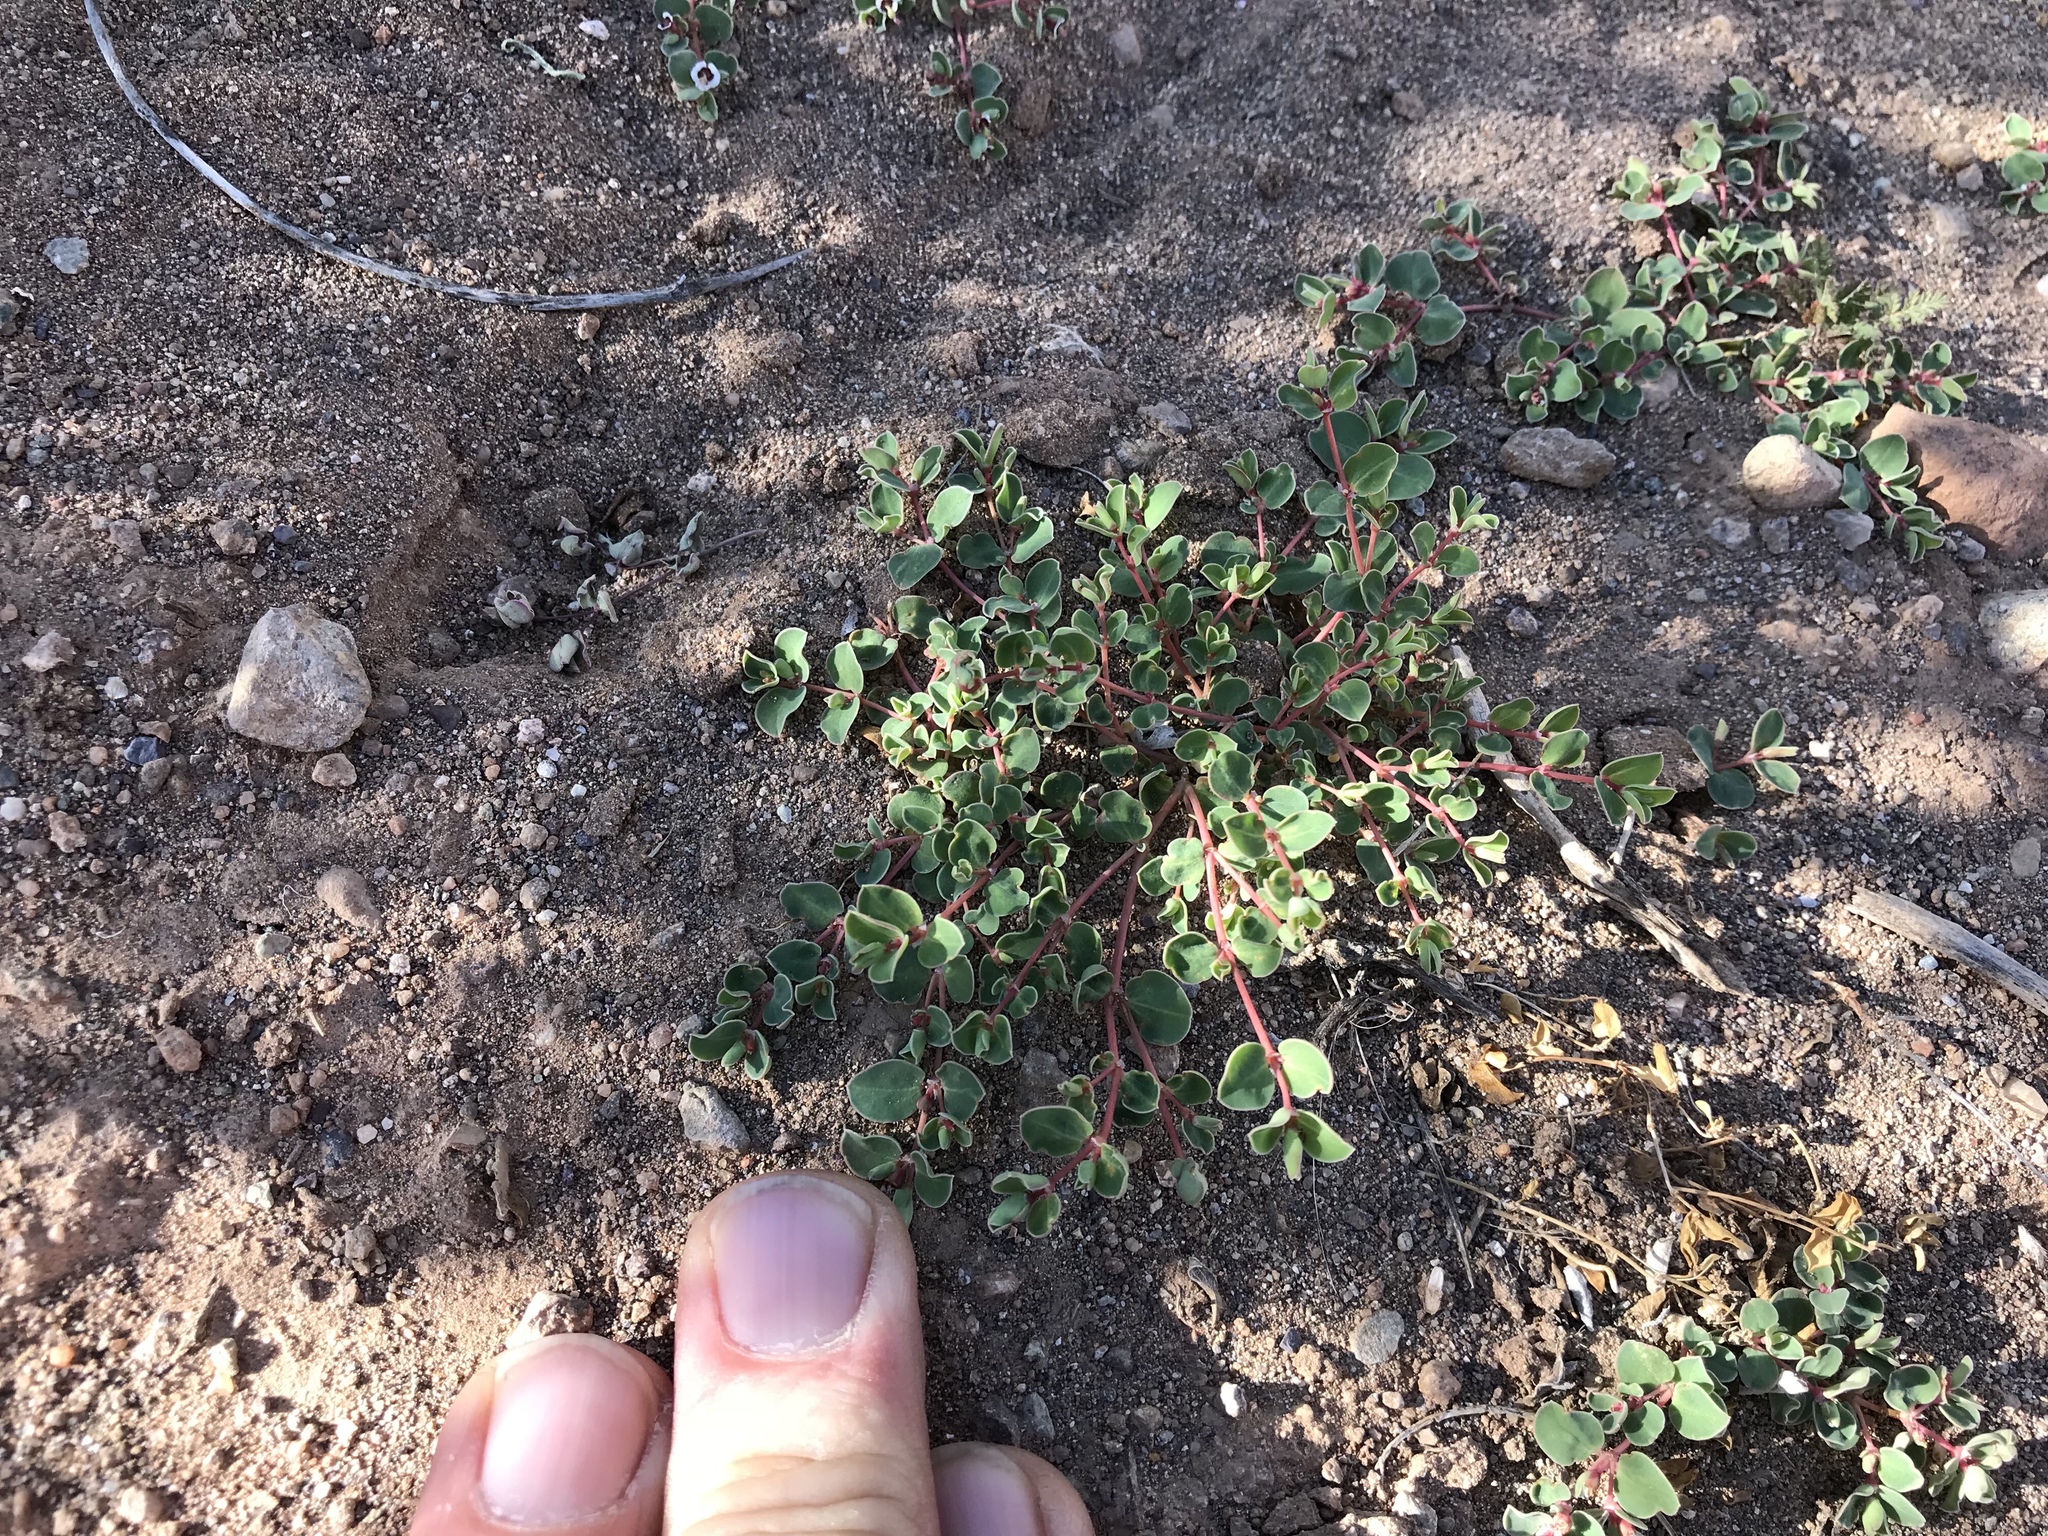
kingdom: Plantae
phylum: Tracheophyta
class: Magnoliopsida
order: Malpighiales
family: Euphorbiaceae
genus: Euphorbia
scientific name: Euphorbia albomarginata
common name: Whitemargin sandmat
